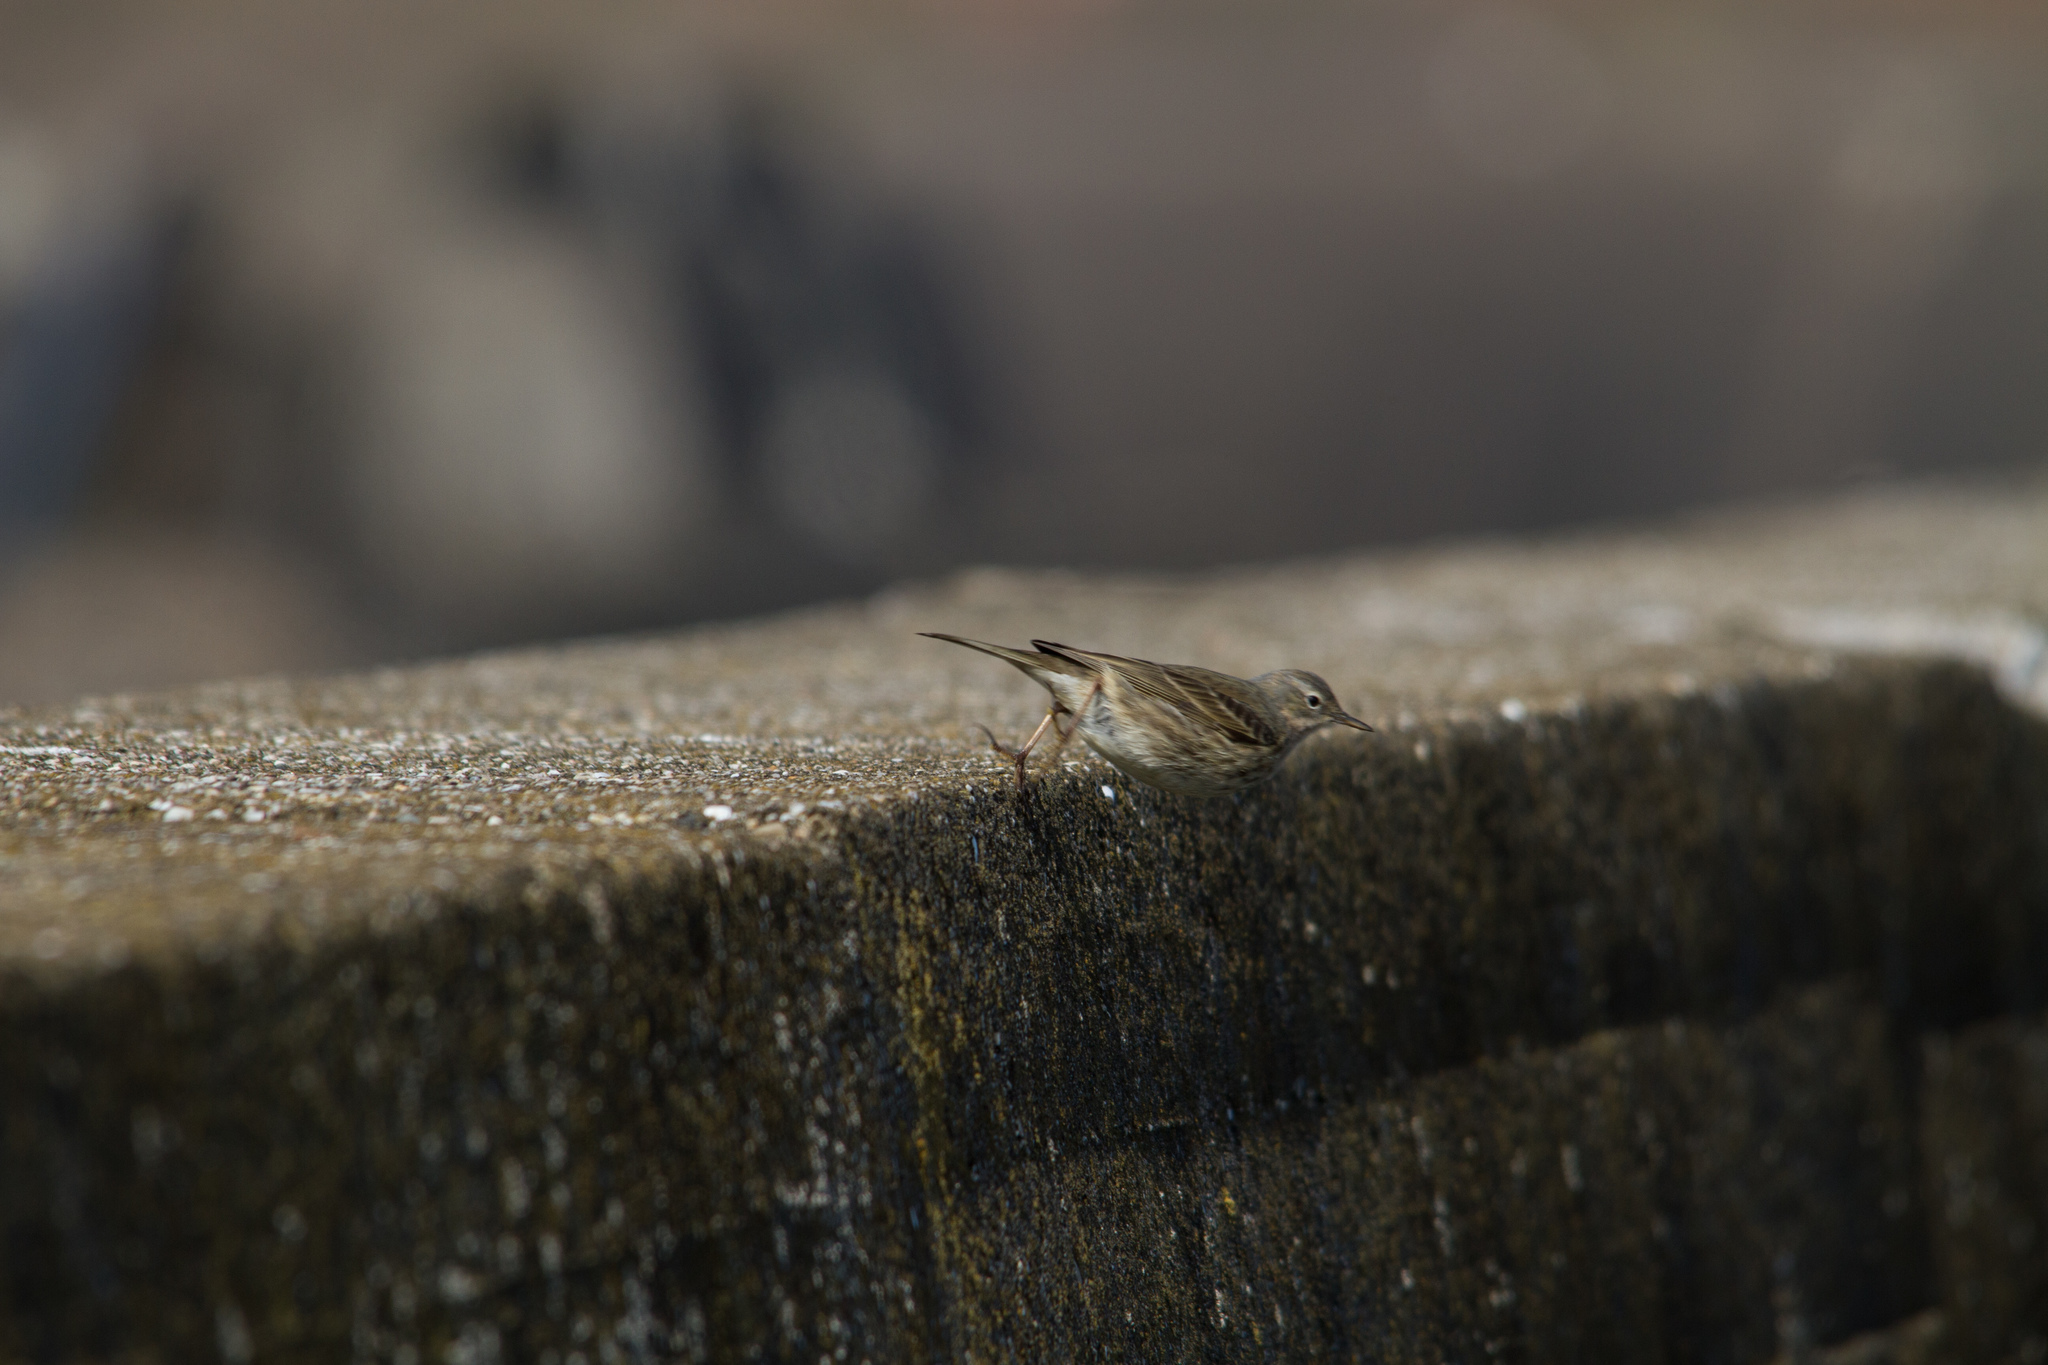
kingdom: Animalia
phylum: Chordata
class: Aves
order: Passeriformes
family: Motacillidae
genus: Anthus
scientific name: Anthus petrosus
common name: Eurasian rock pipit
